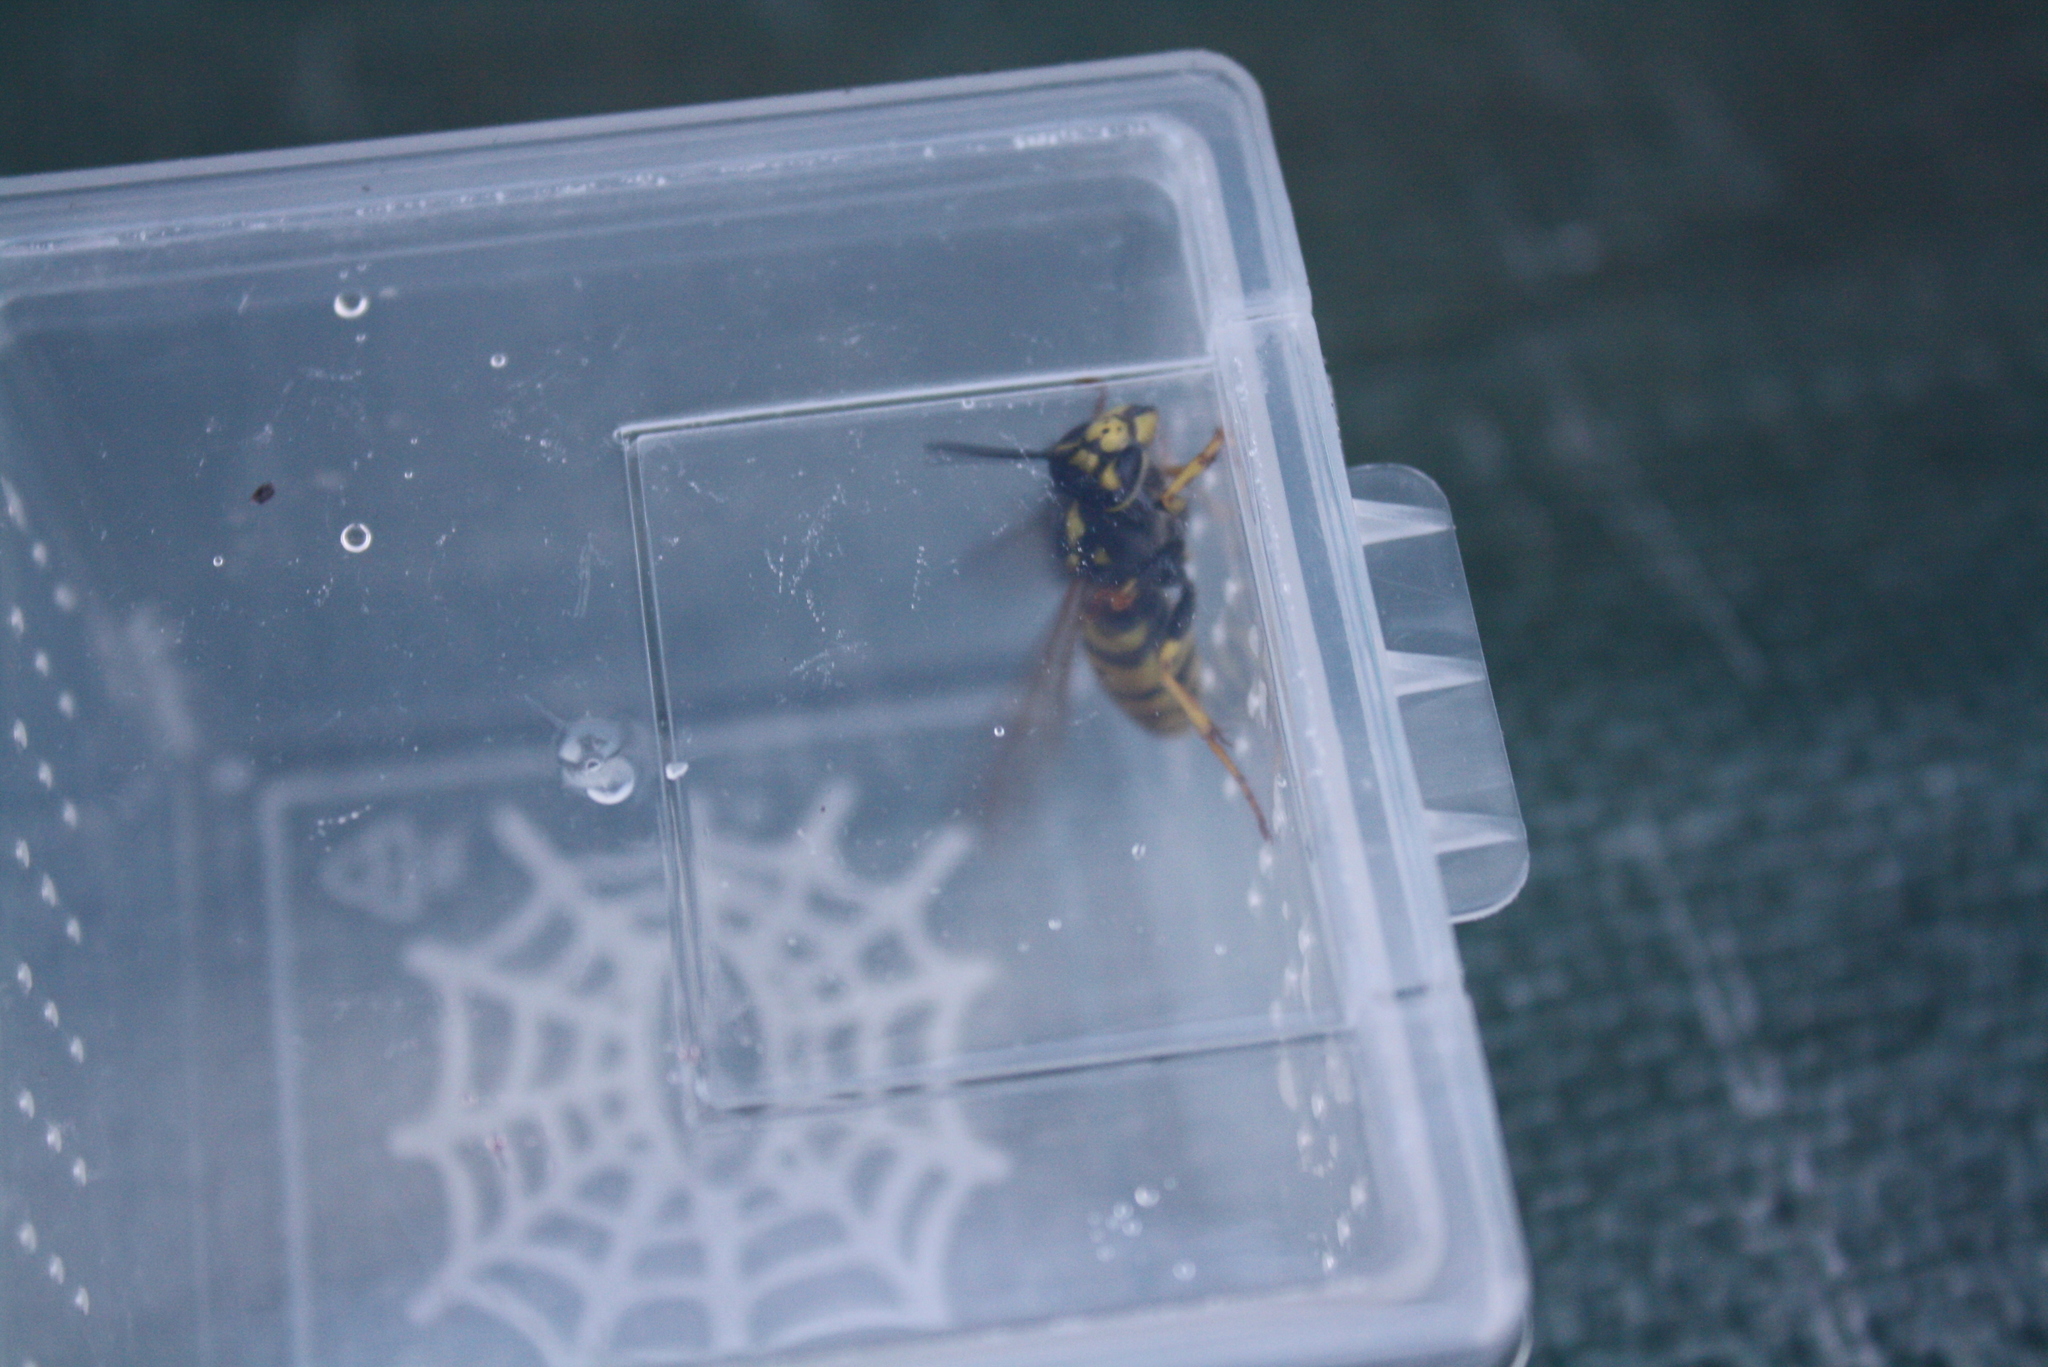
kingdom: Animalia
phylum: Arthropoda
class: Insecta
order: Hymenoptera
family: Vespidae
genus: Vespula
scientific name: Vespula germanica
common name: German wasp
